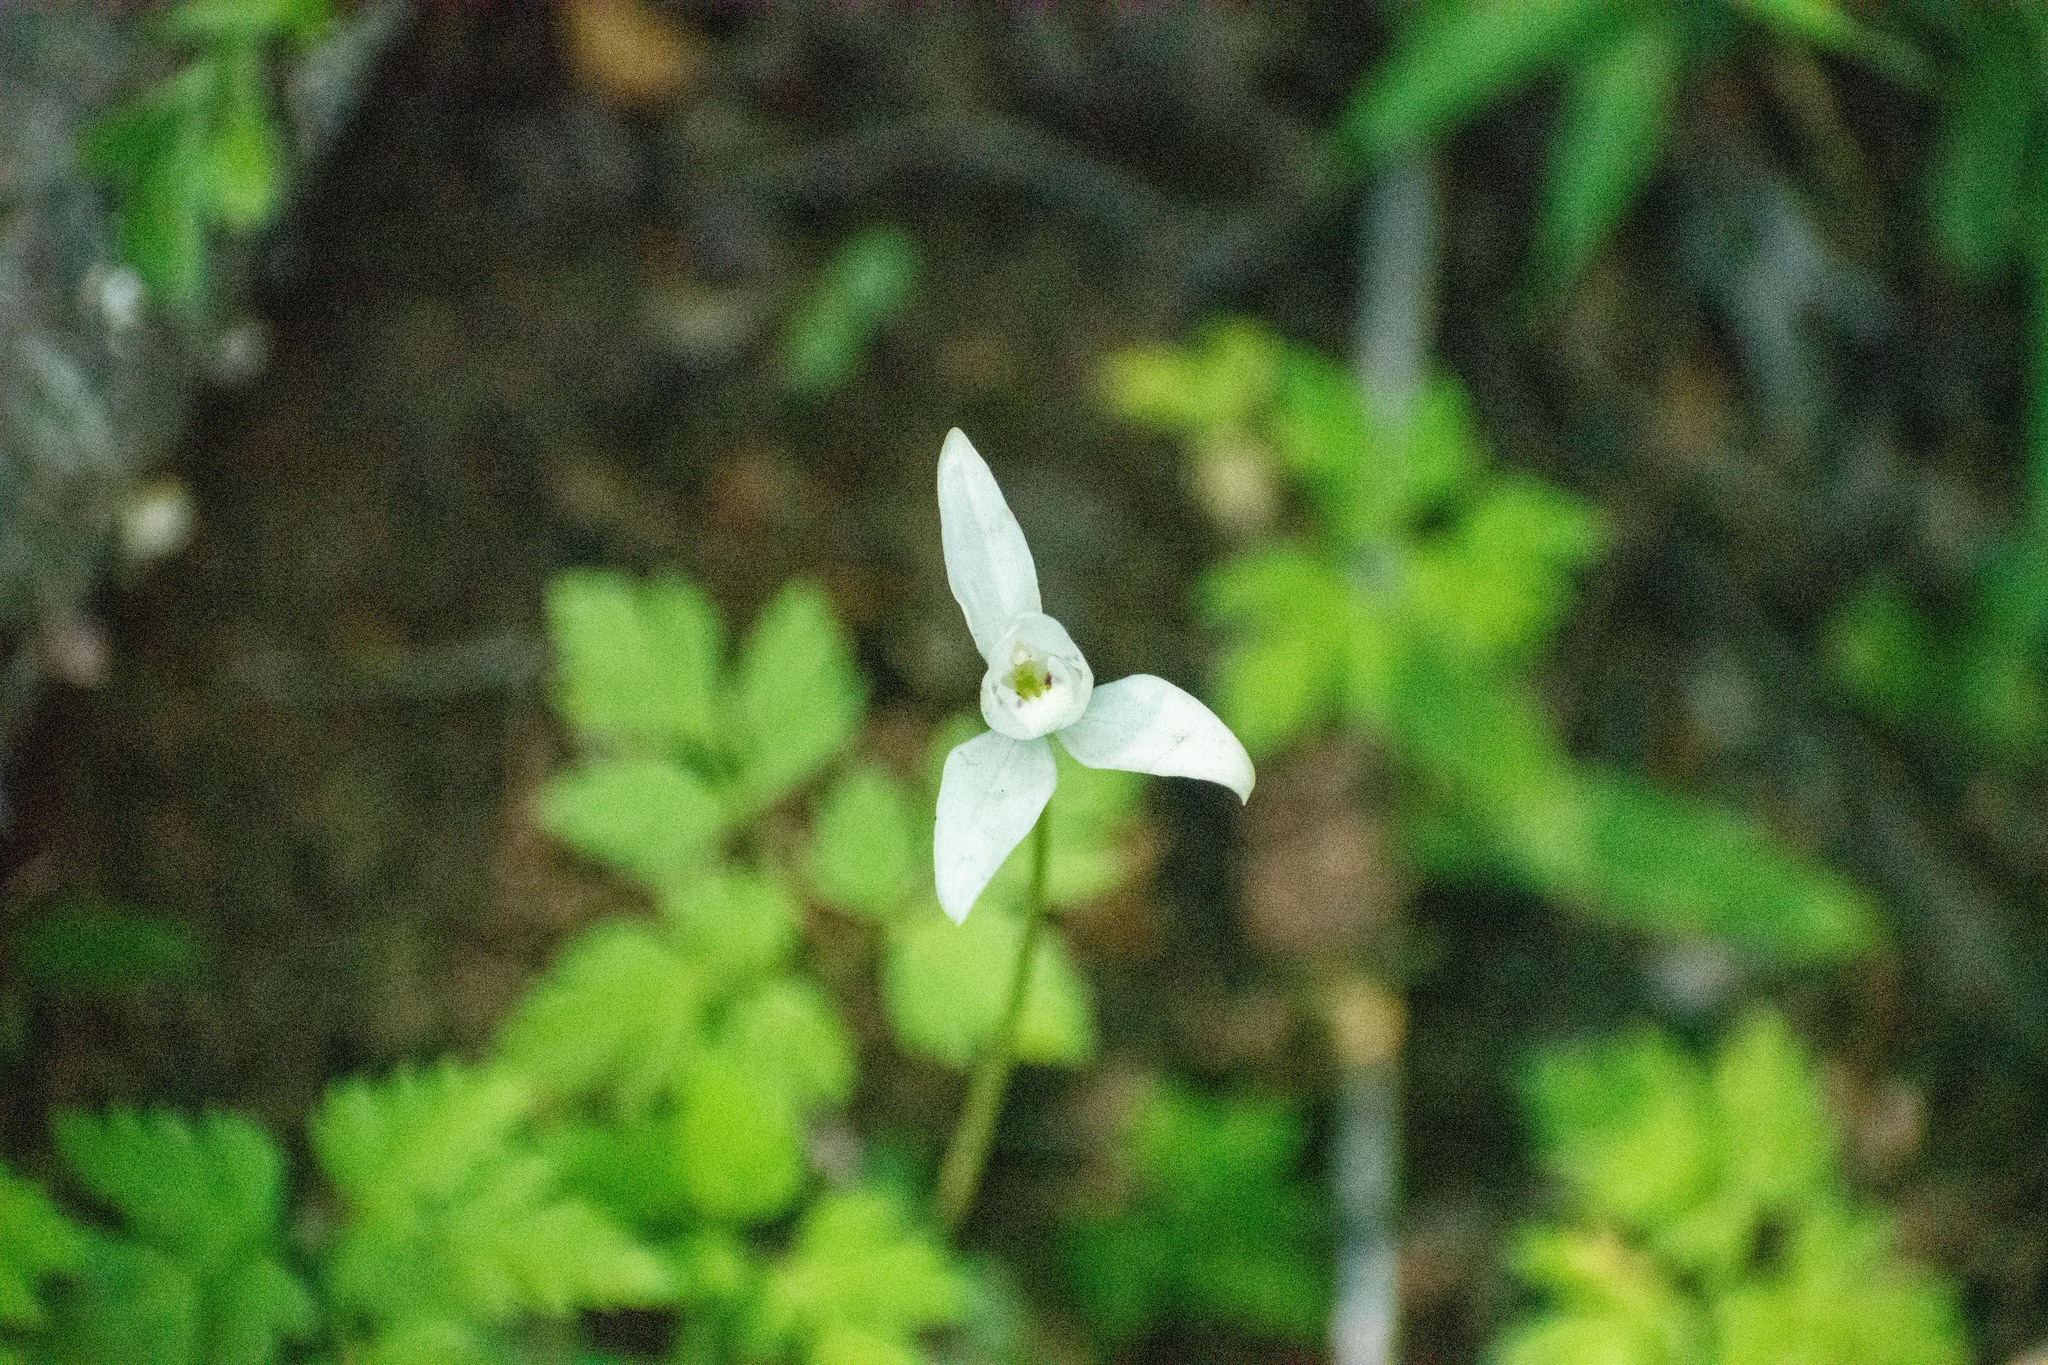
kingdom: Plantae
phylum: Tracheophyta
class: Liliopsida
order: Asparagales
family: Orchidaceae
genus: Codonorchis
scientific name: Codonorchis lessonii
